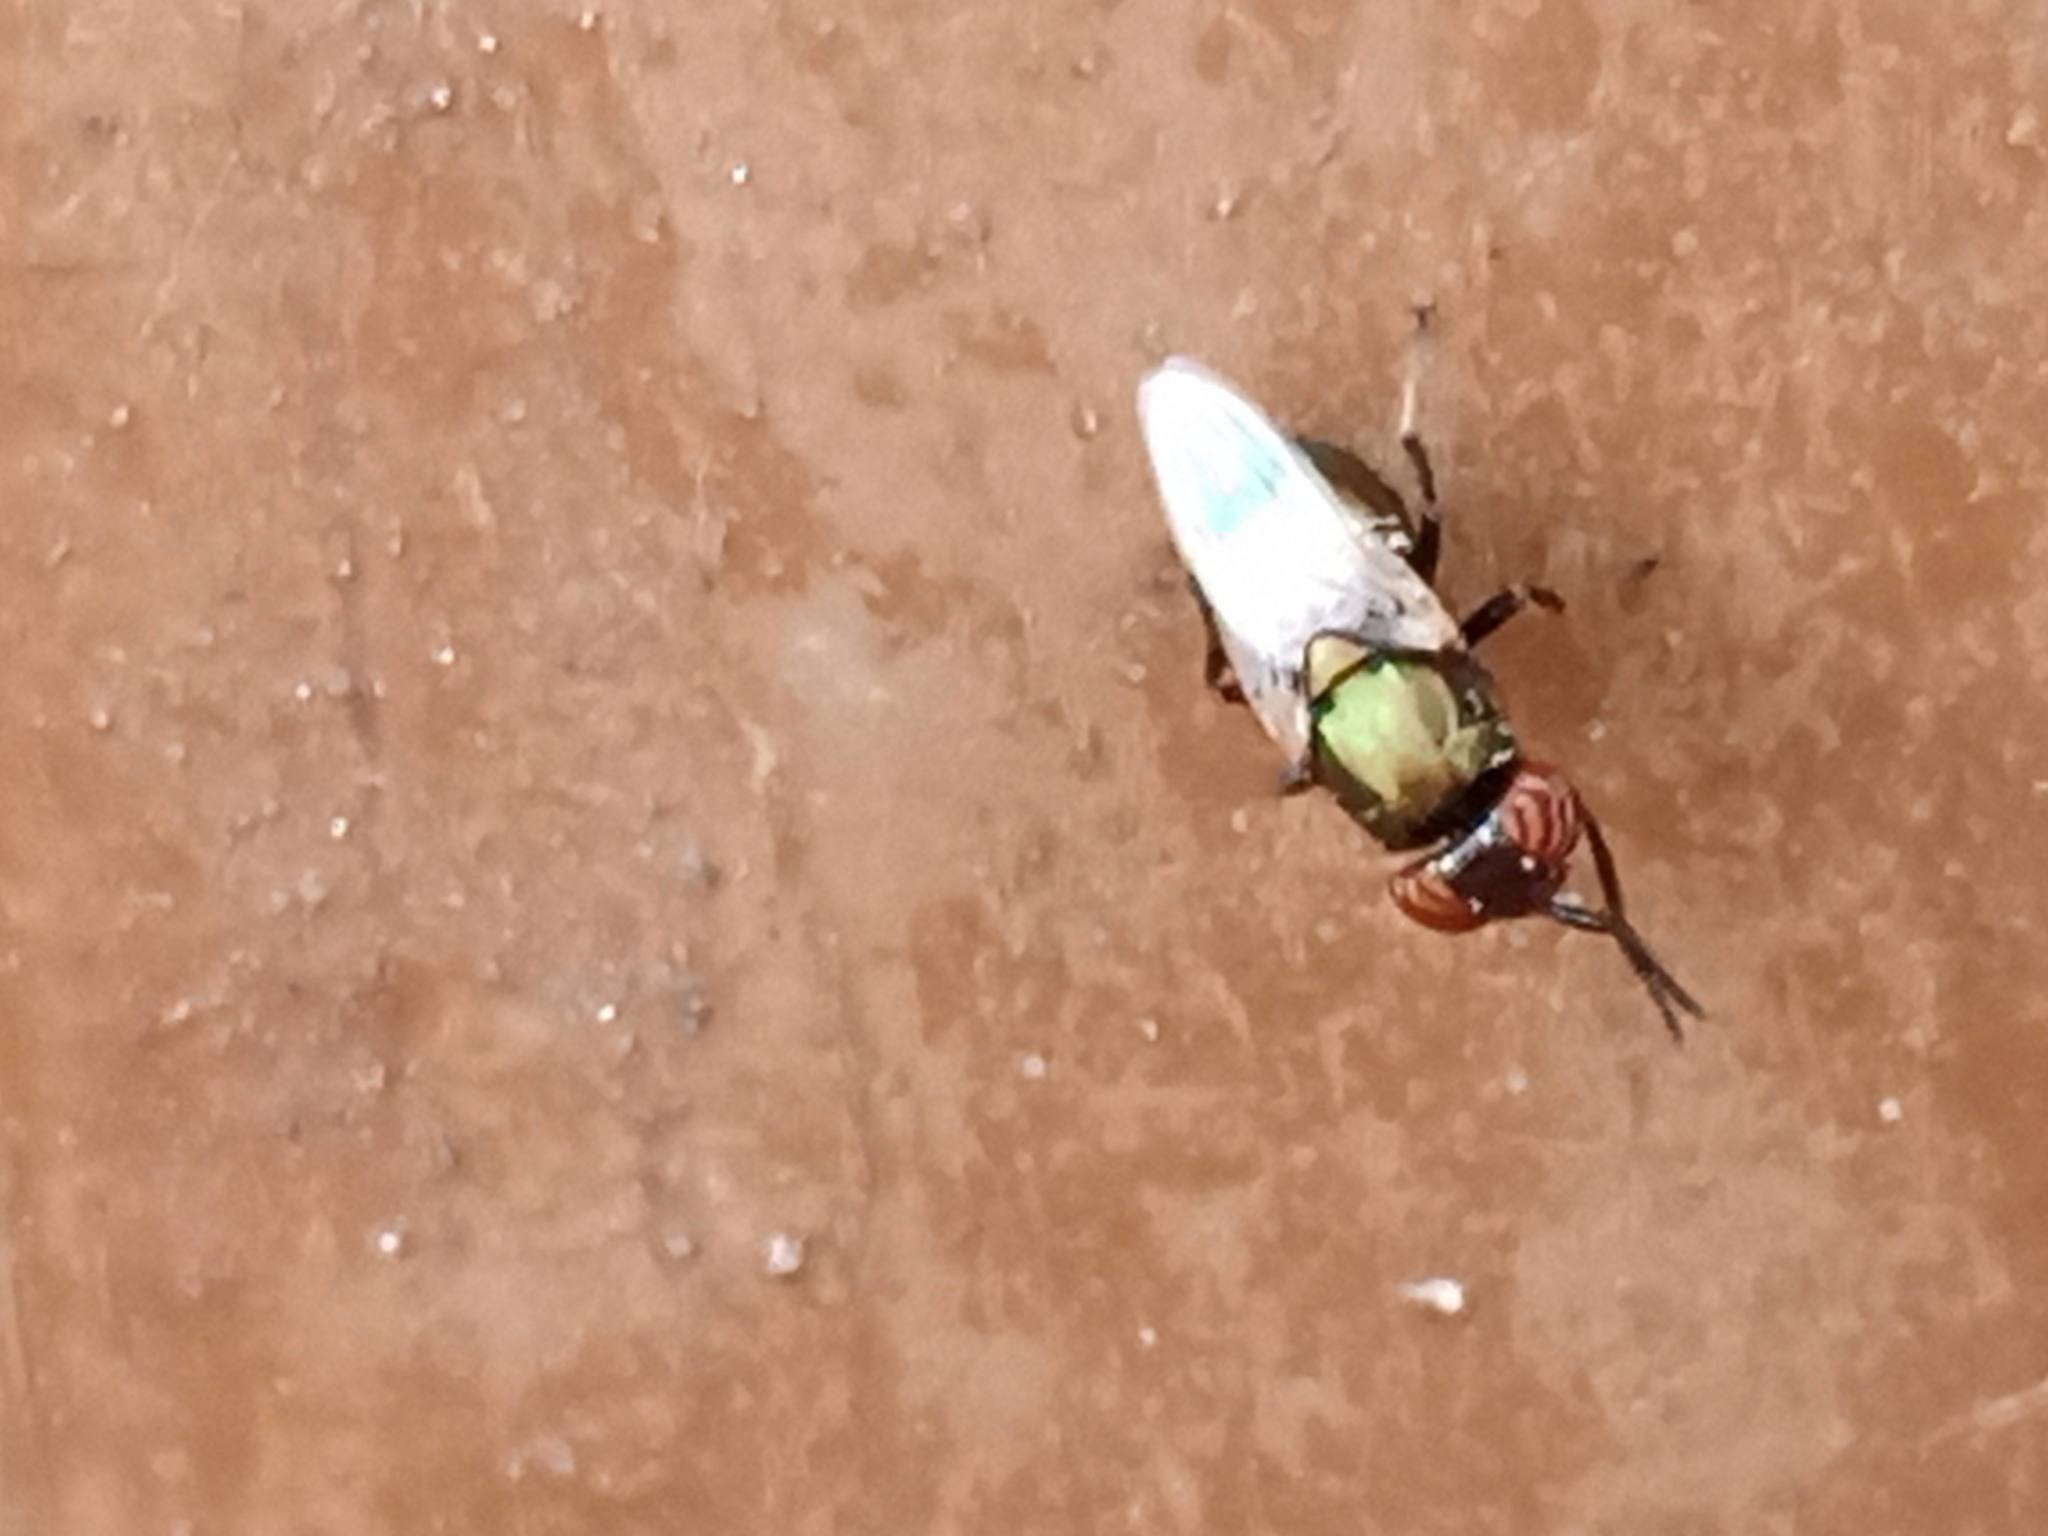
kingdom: Animalia
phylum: Arthropoda
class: Insecta
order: Diptera
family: Ulidiidae
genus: Physiphora
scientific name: Physiphora alceae
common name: Picture-winged fly
